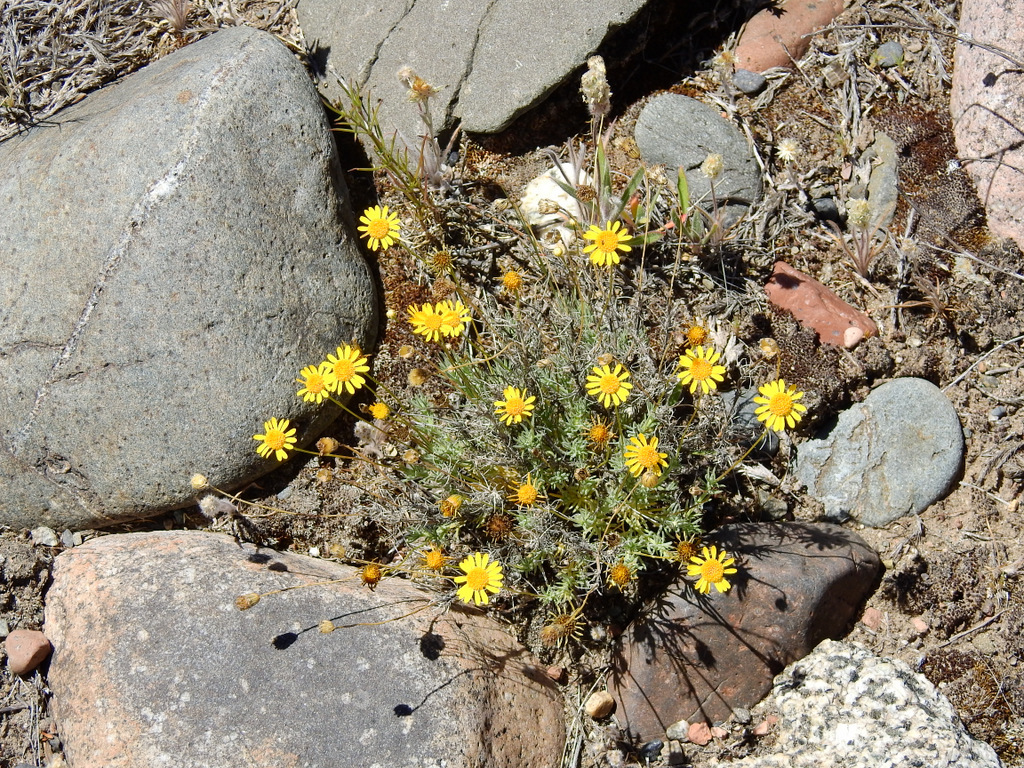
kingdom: Plantae
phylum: Tracheophyta
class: Magnoliopsida
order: Asterales
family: Asteraceae
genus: Thymophylla
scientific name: Thymophylla pentachaeta
